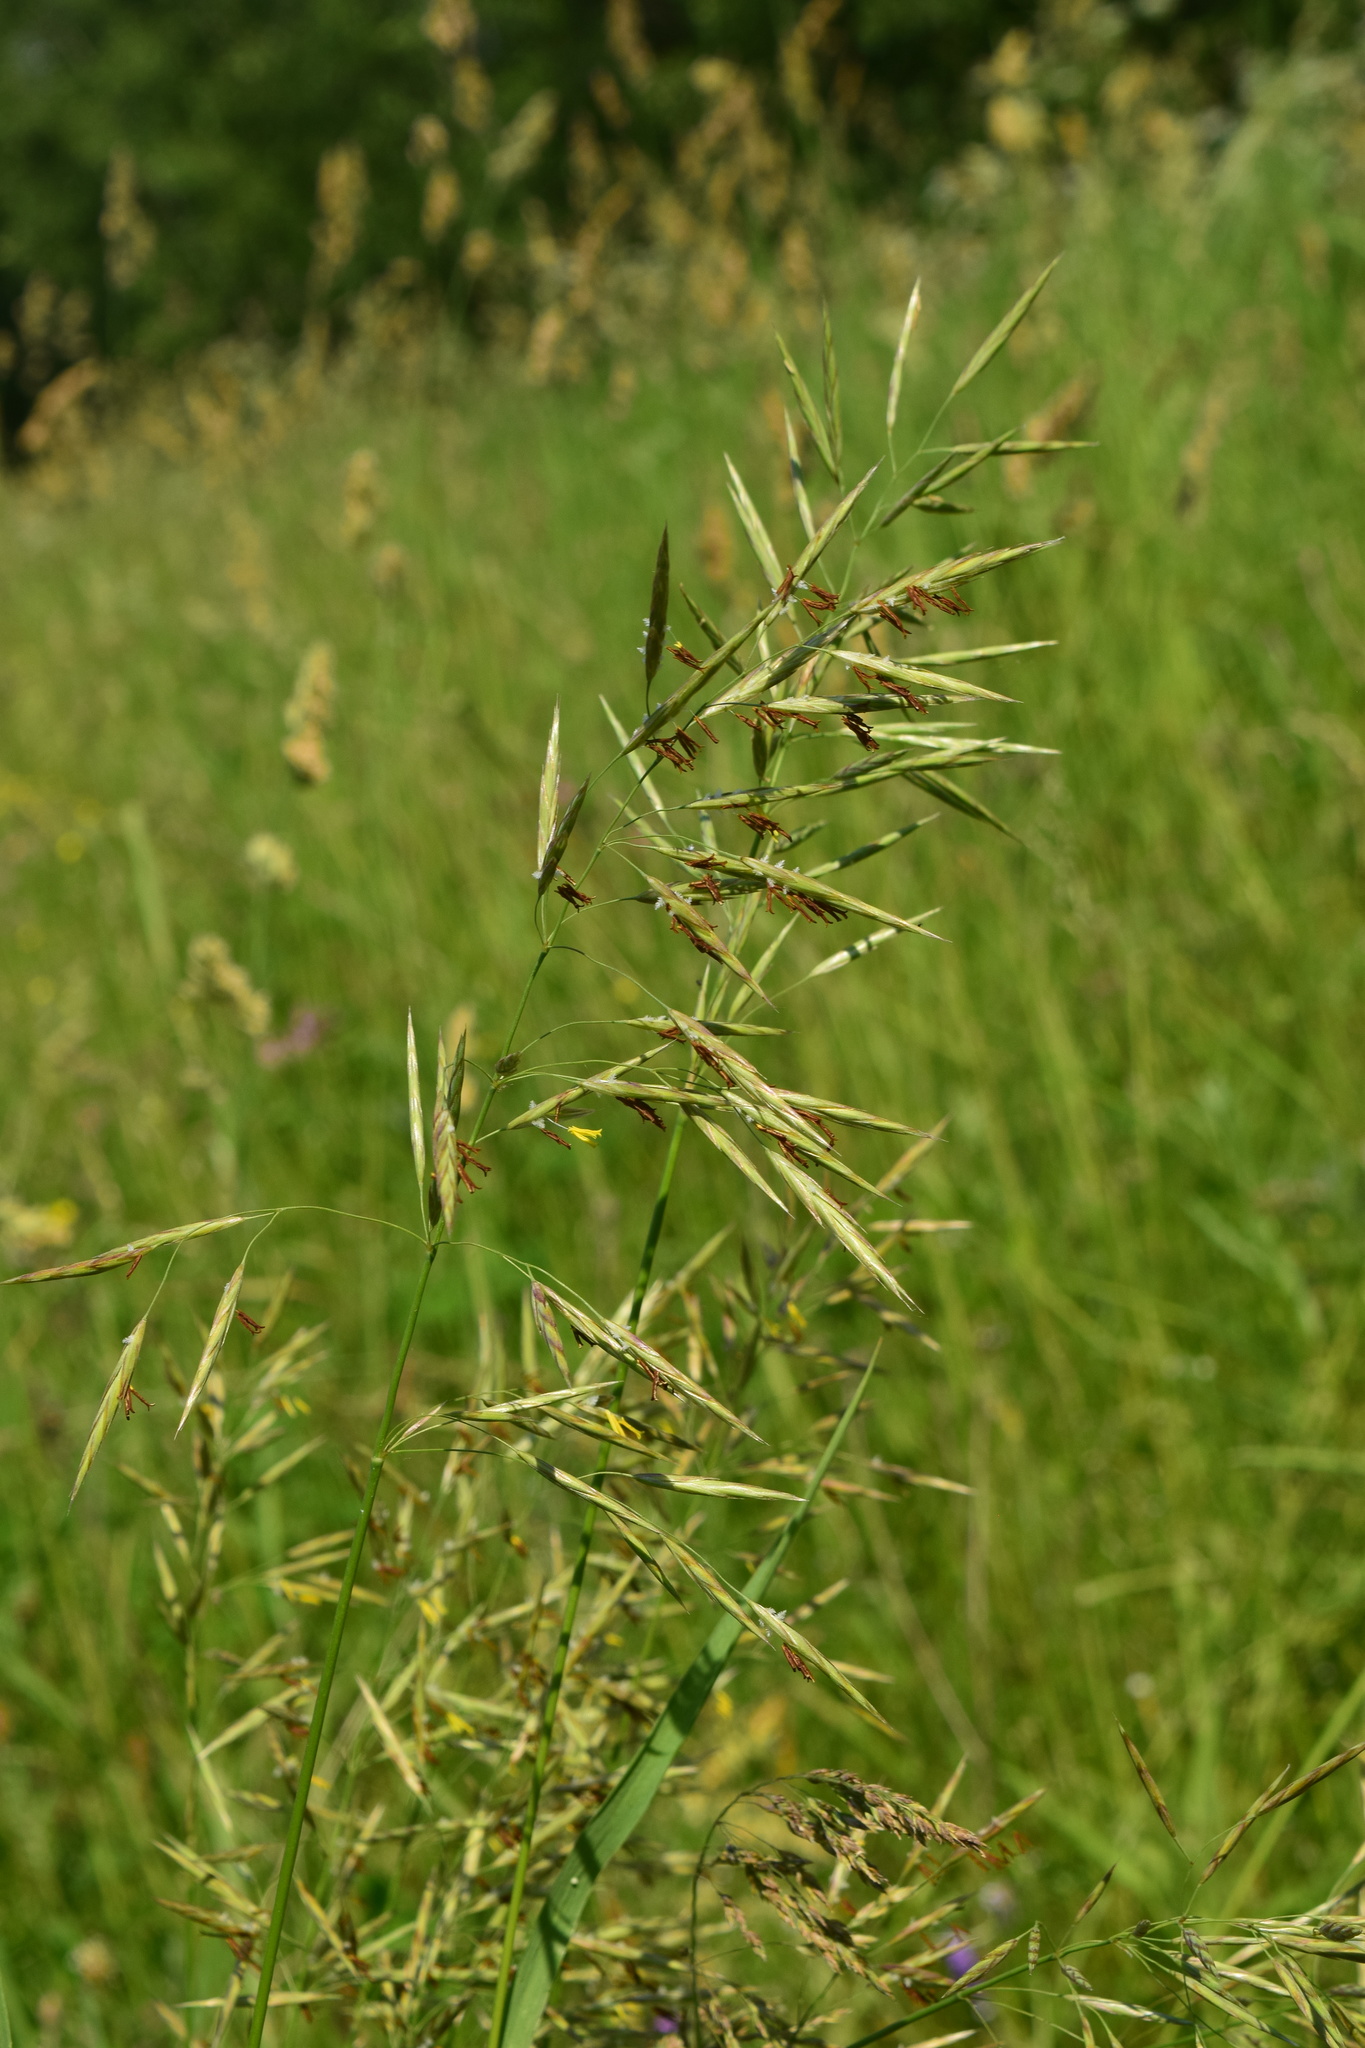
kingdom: Plantae
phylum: Tracheophyta
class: Liliopsida
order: Poales
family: Poaceae
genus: Bromus
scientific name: Bromus inermis
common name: Smooth brome
